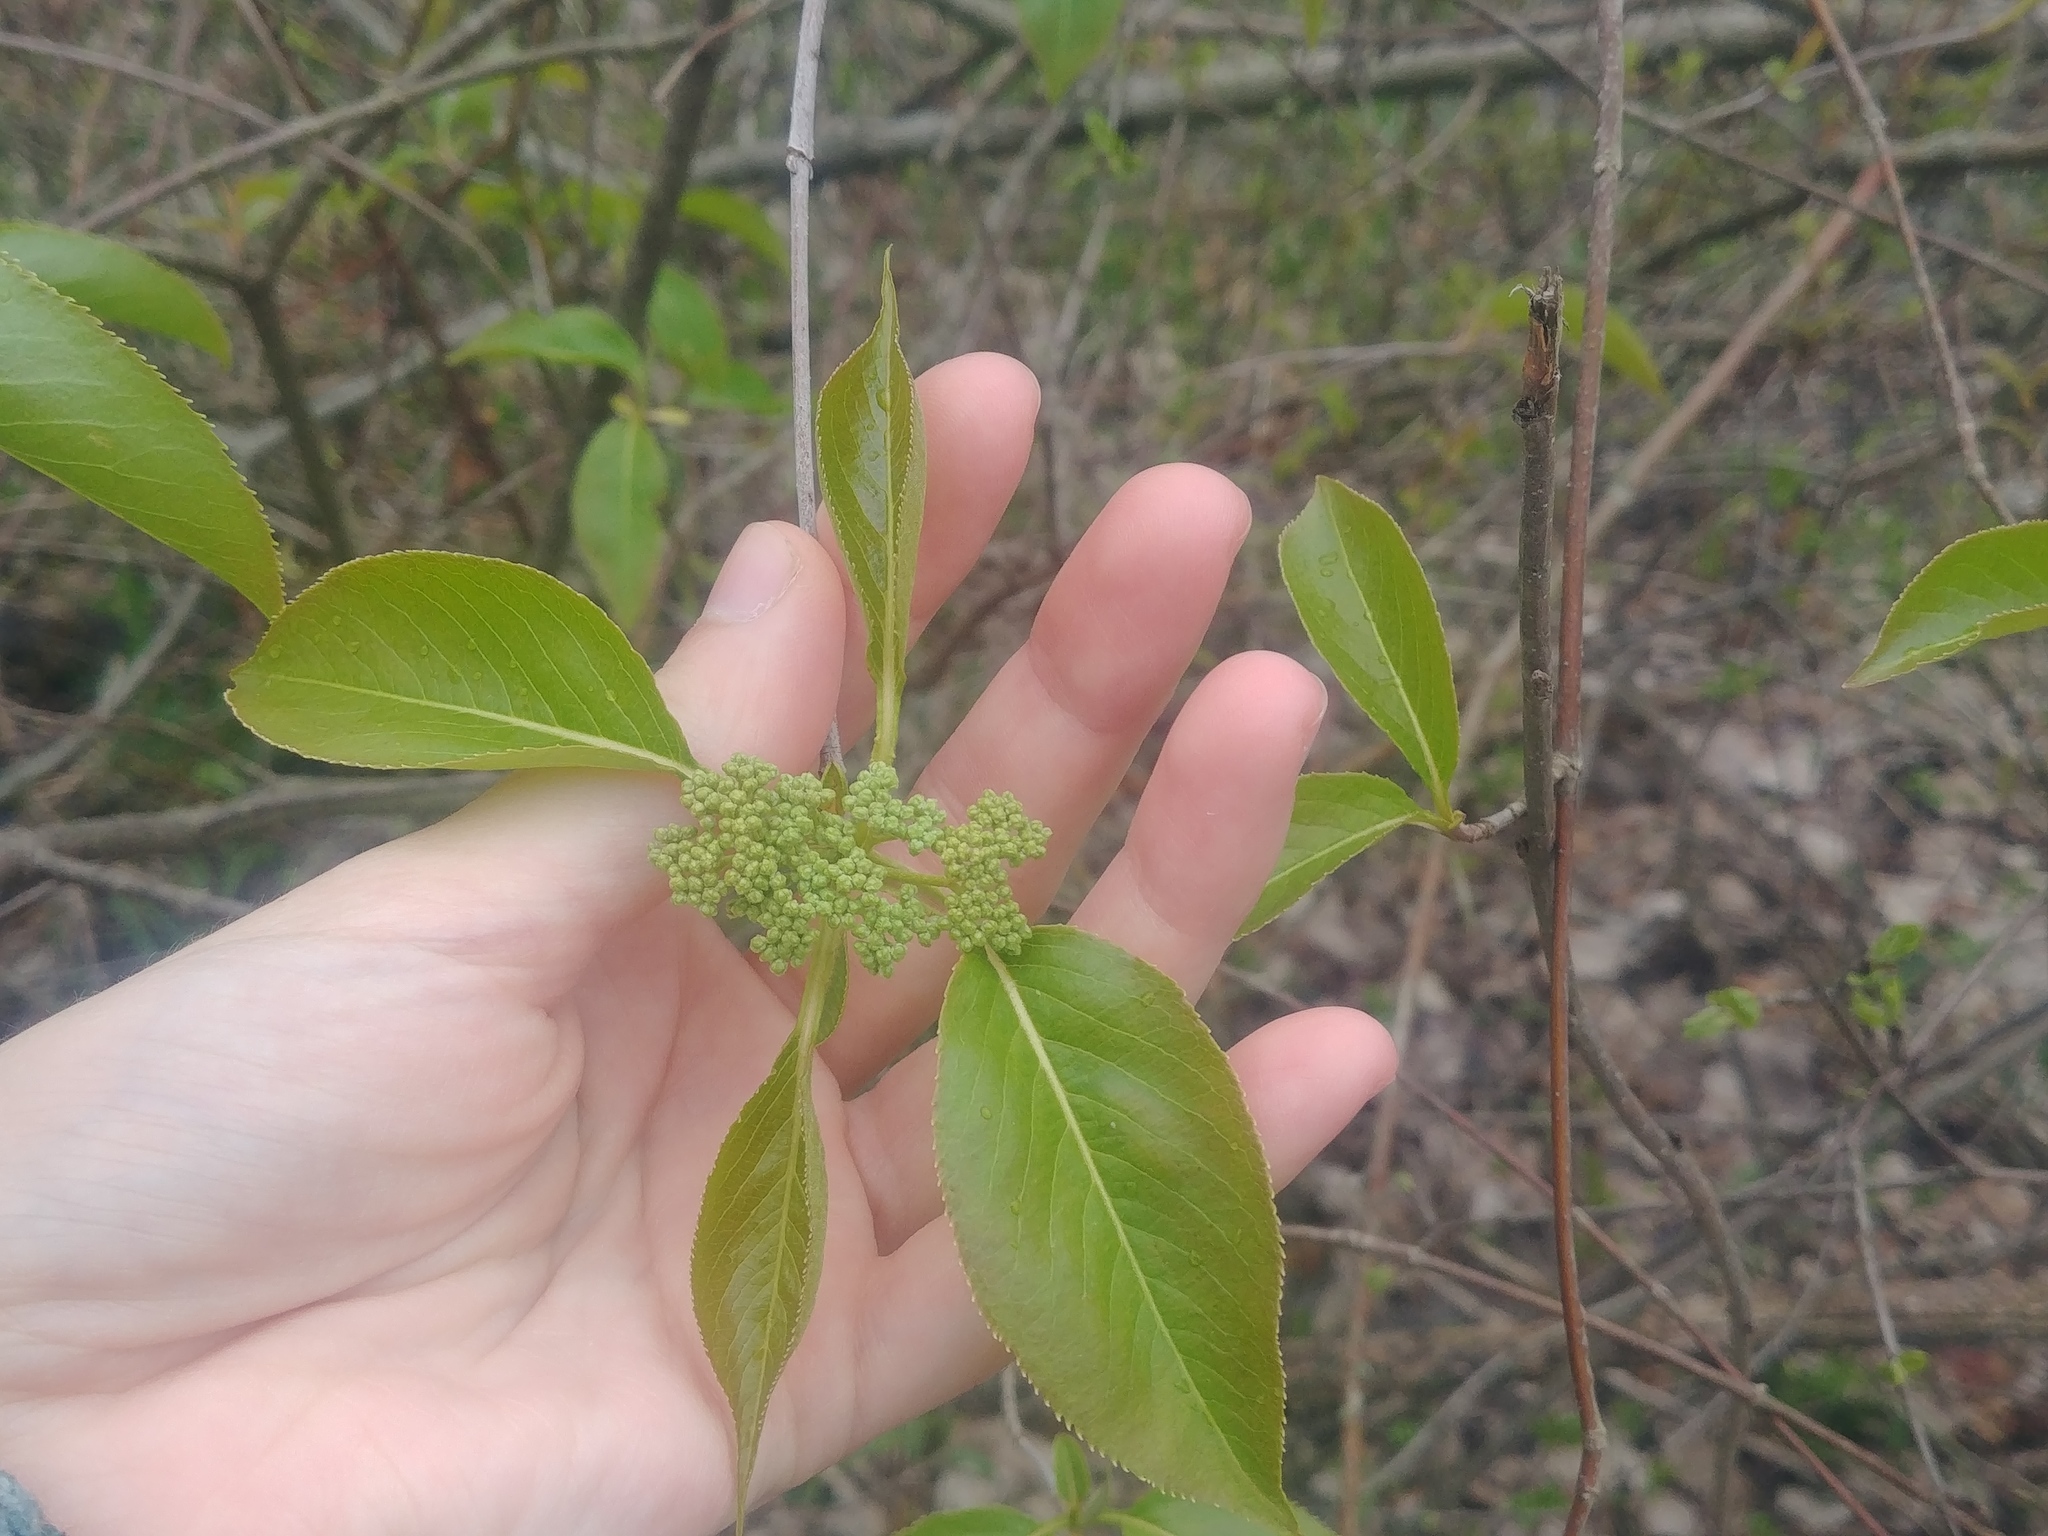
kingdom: Plantae
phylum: Tracheophyta
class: Magnoliopsida
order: Dipsacales
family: Viburnaceae
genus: Viburnum
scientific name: Viburnum lentago
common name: Black haw
